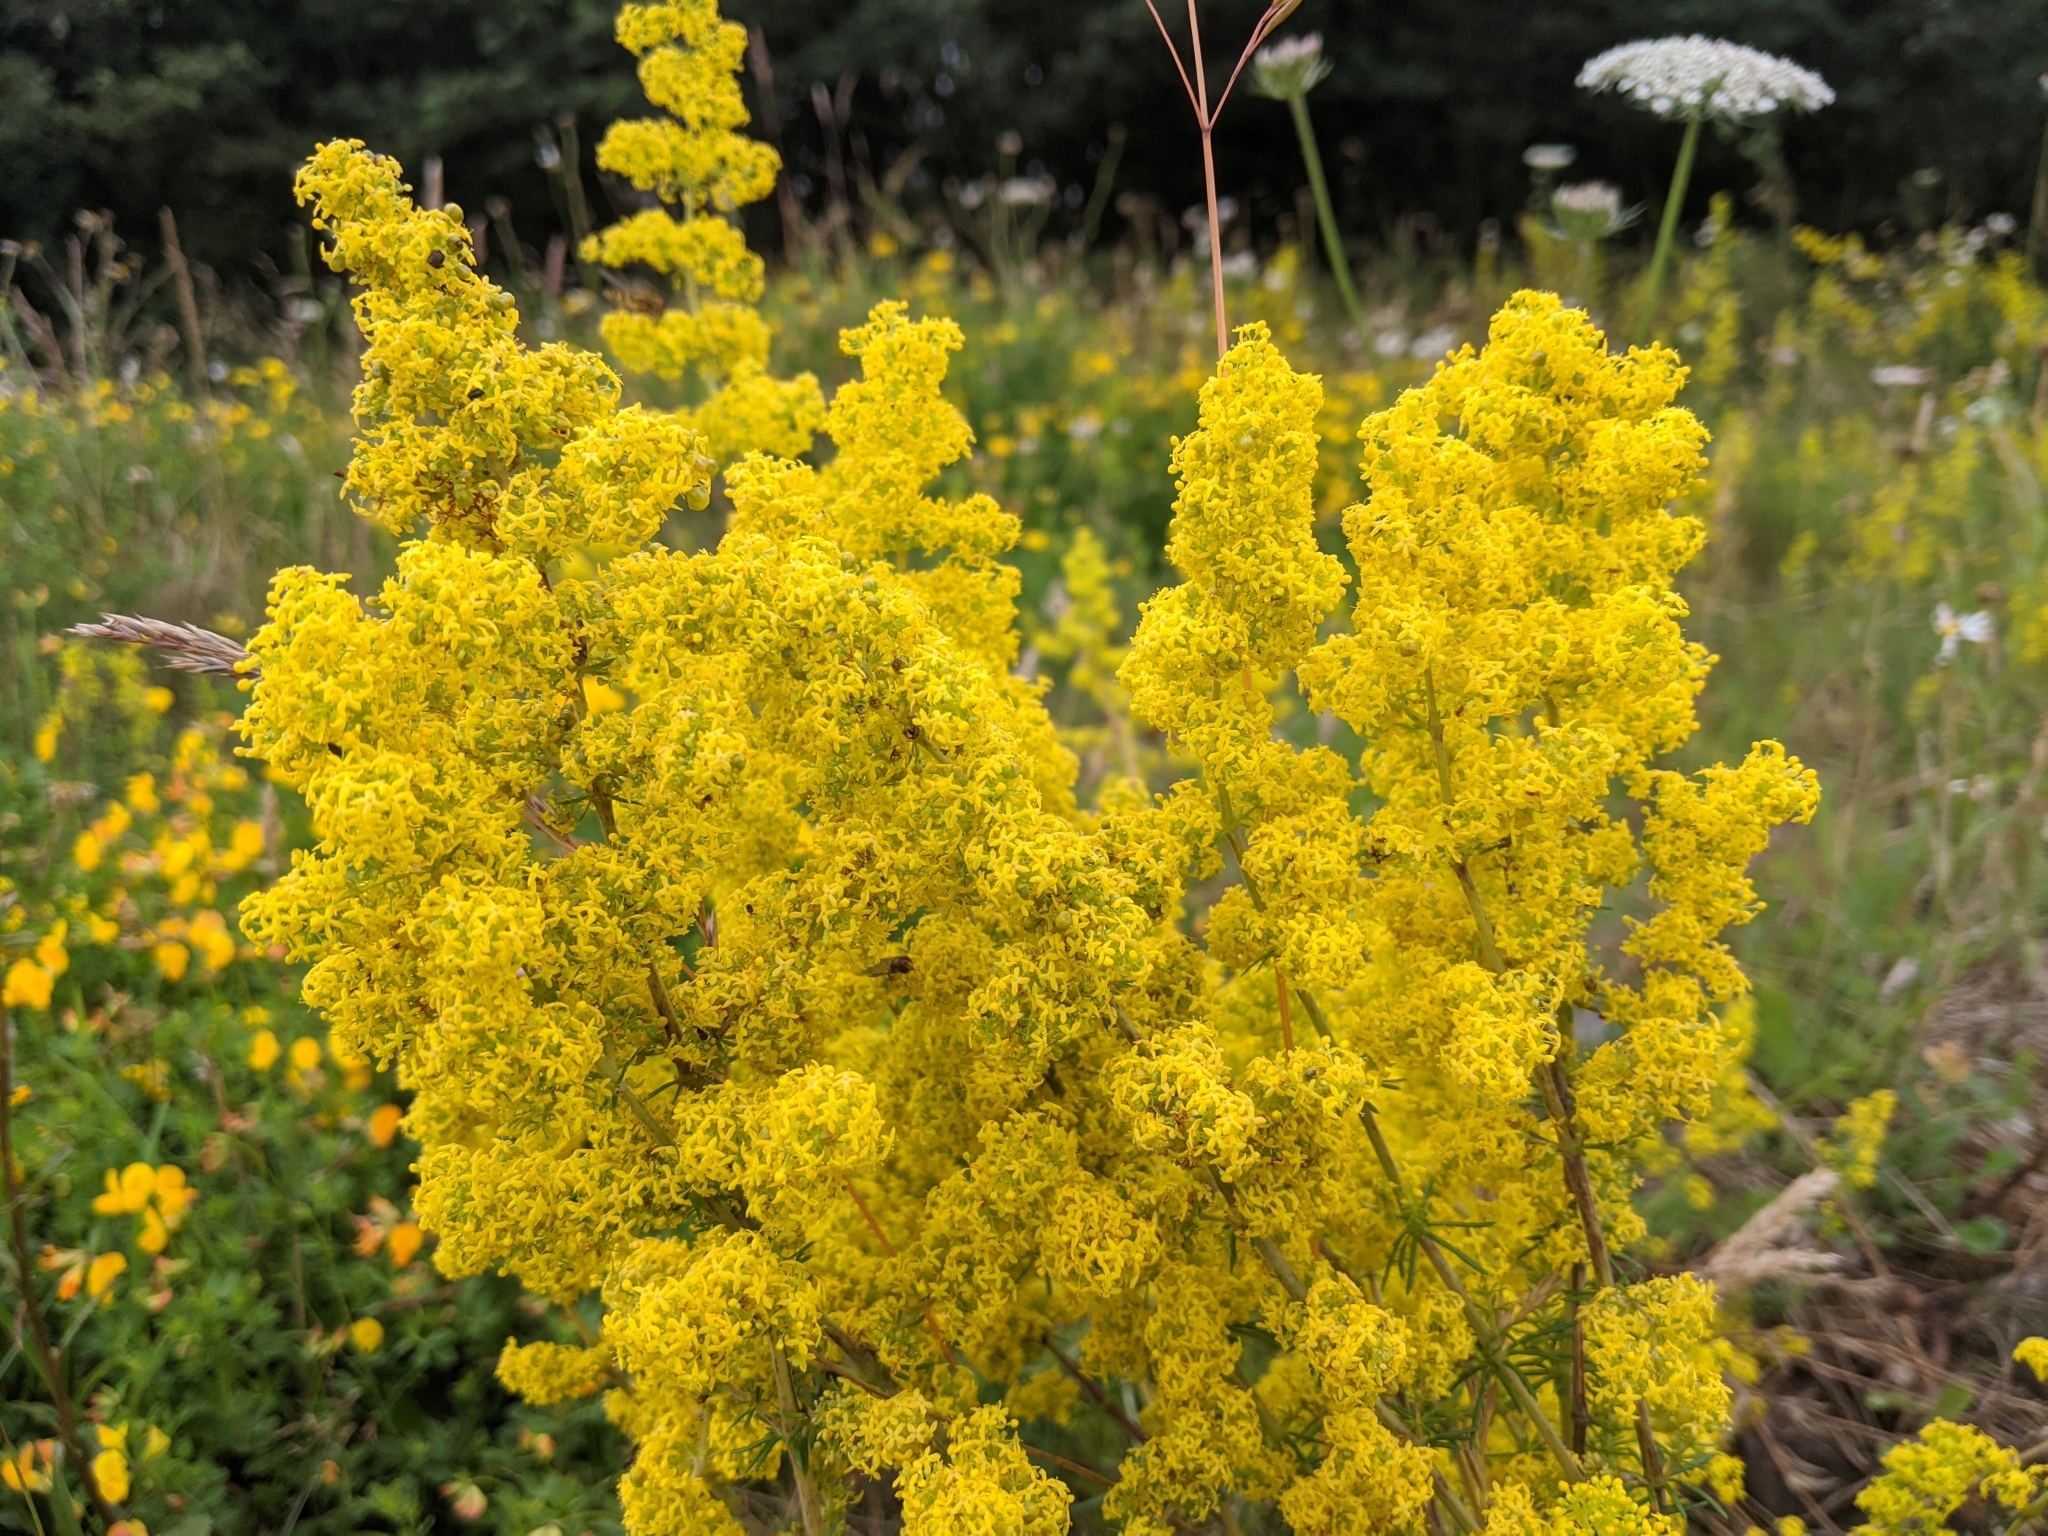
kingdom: Plantae
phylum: Tracheophyta
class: Magnoliopsida
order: Gentianales
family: Rubiaceae
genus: Galium
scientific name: Galium verum
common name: Lady's bedstraw
